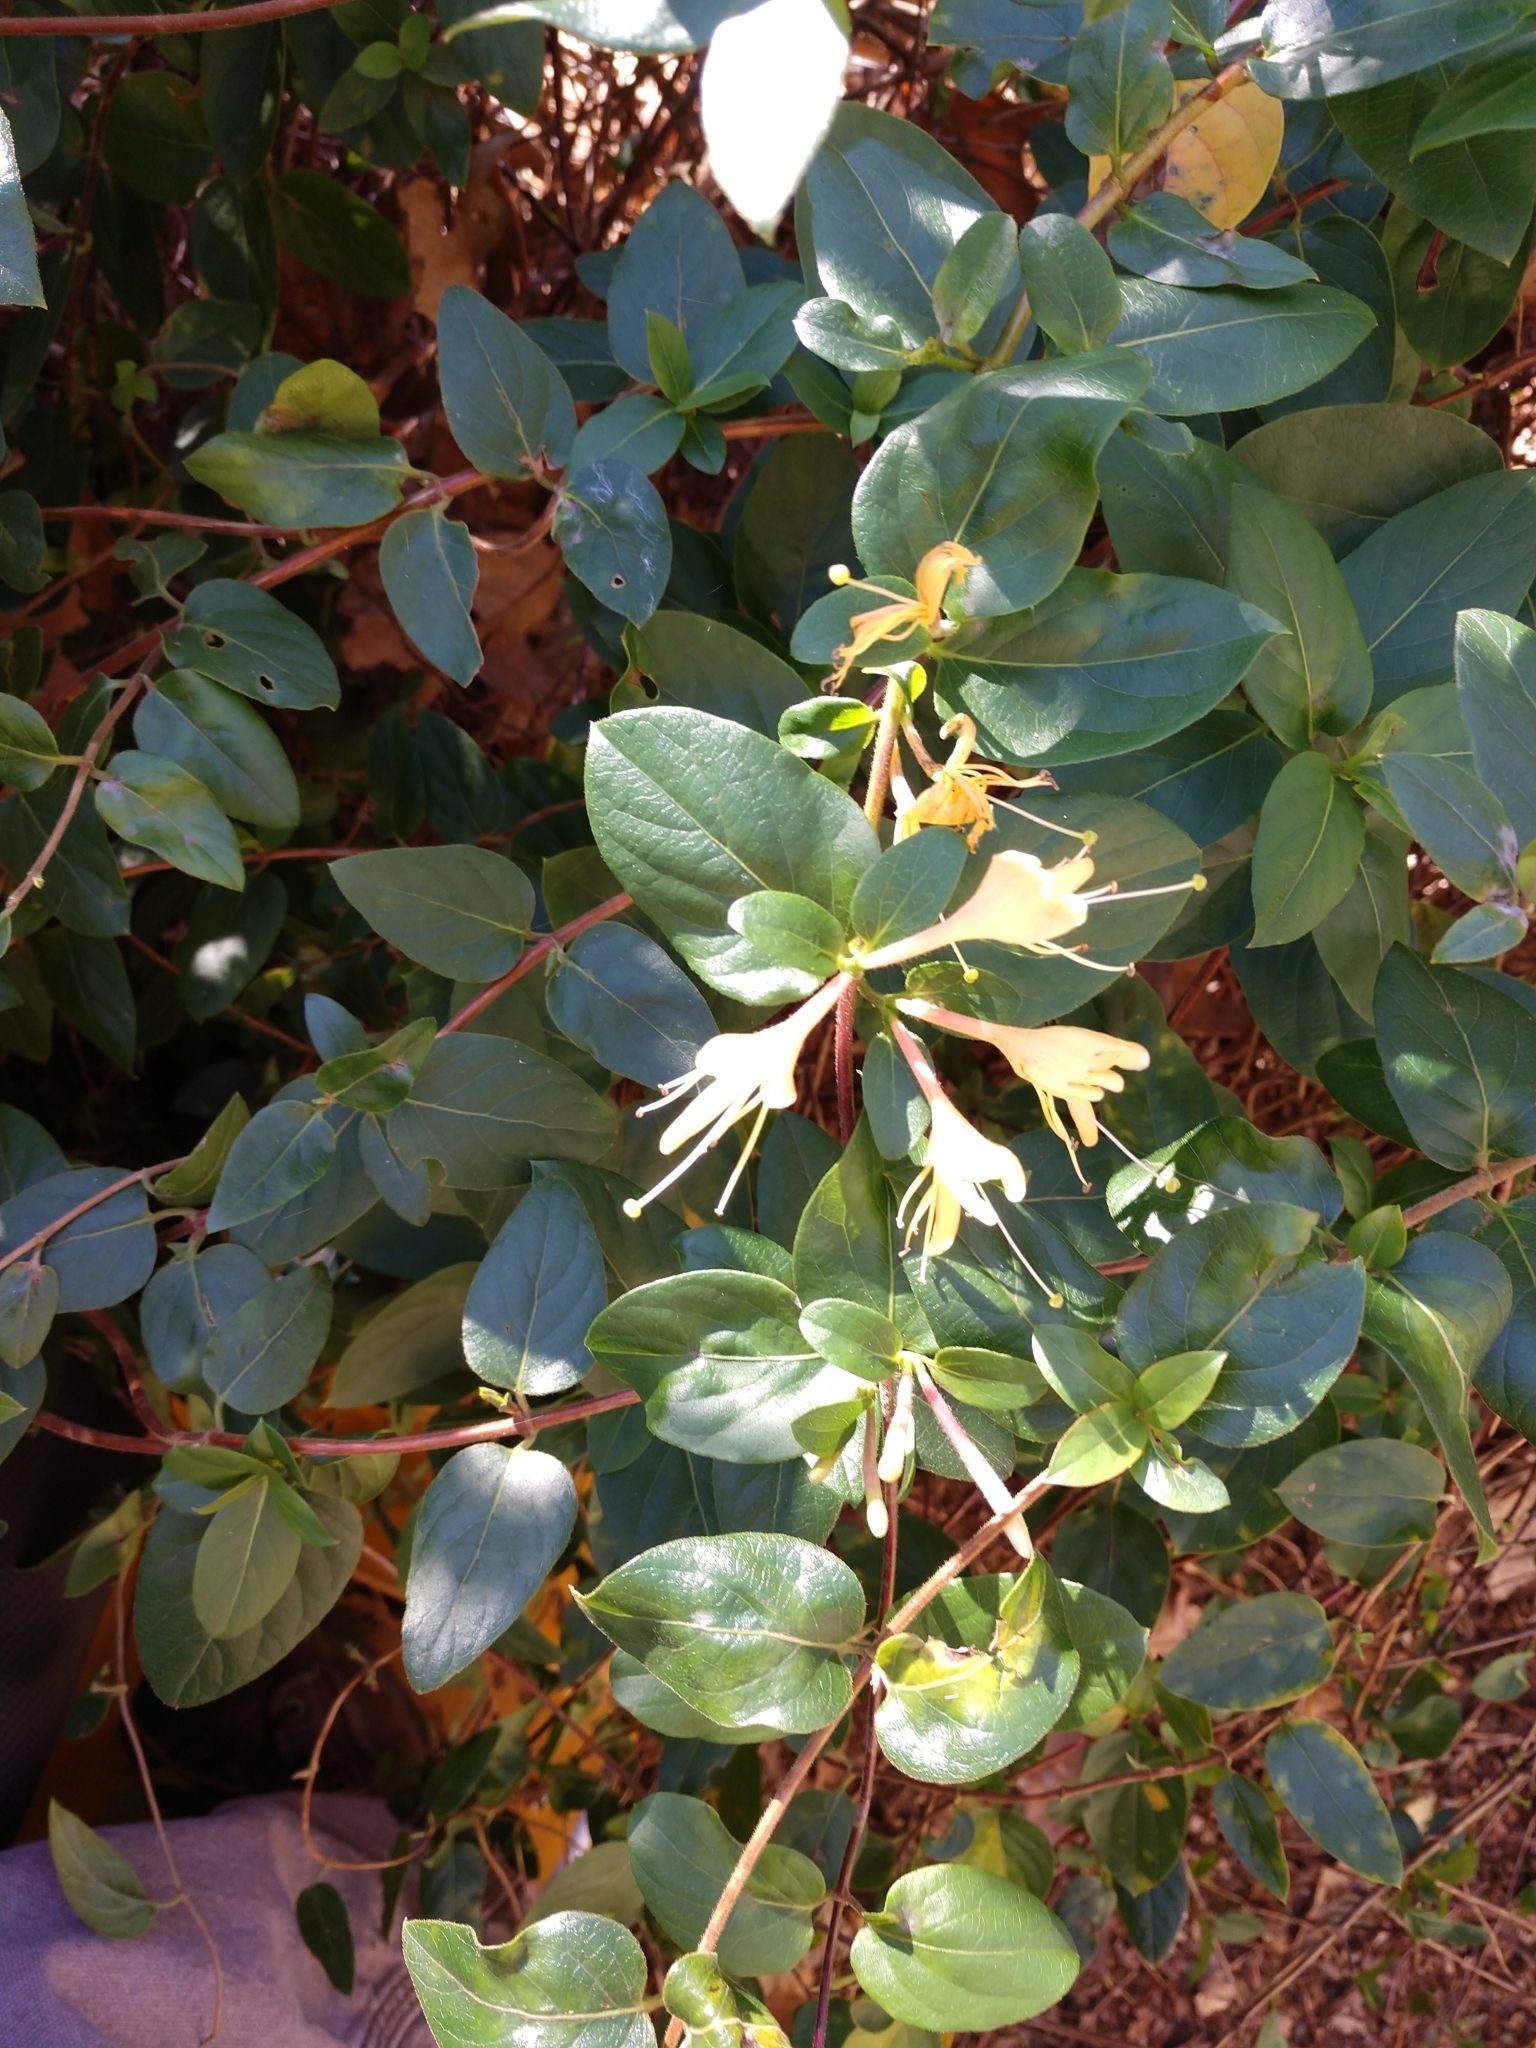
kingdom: Plantae
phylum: Tracheophyta
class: Magnoliopsida
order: Dipsacales
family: Caprifoliaceae
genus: Lonicera
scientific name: Lonicera japonica
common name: Japanese honeysuckle
